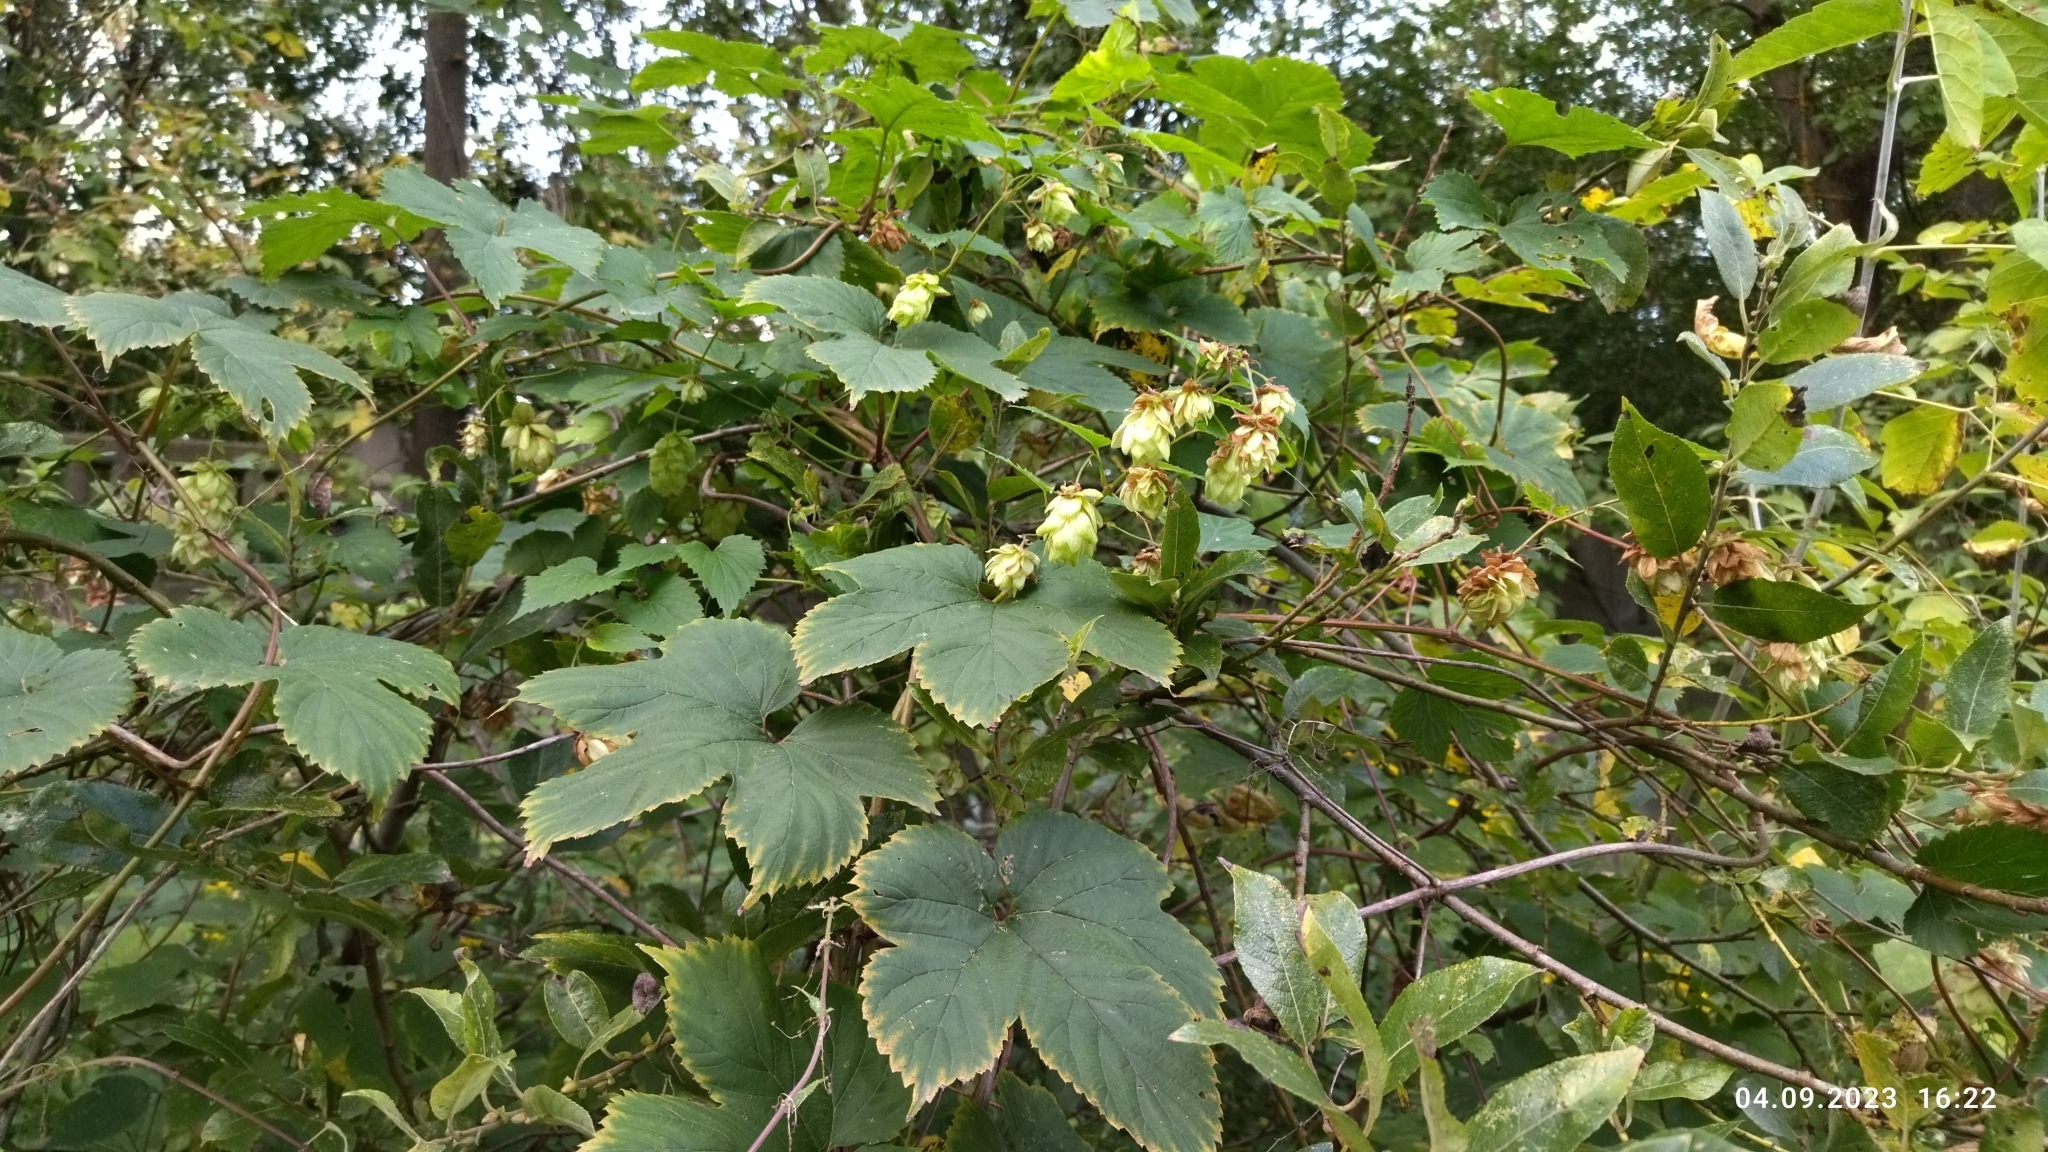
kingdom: Plantae
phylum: Tracheophyta
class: Magnoliopsida
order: Rosales
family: Cannabaceae
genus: Humulus
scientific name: Humulus lupulus
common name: Hop
